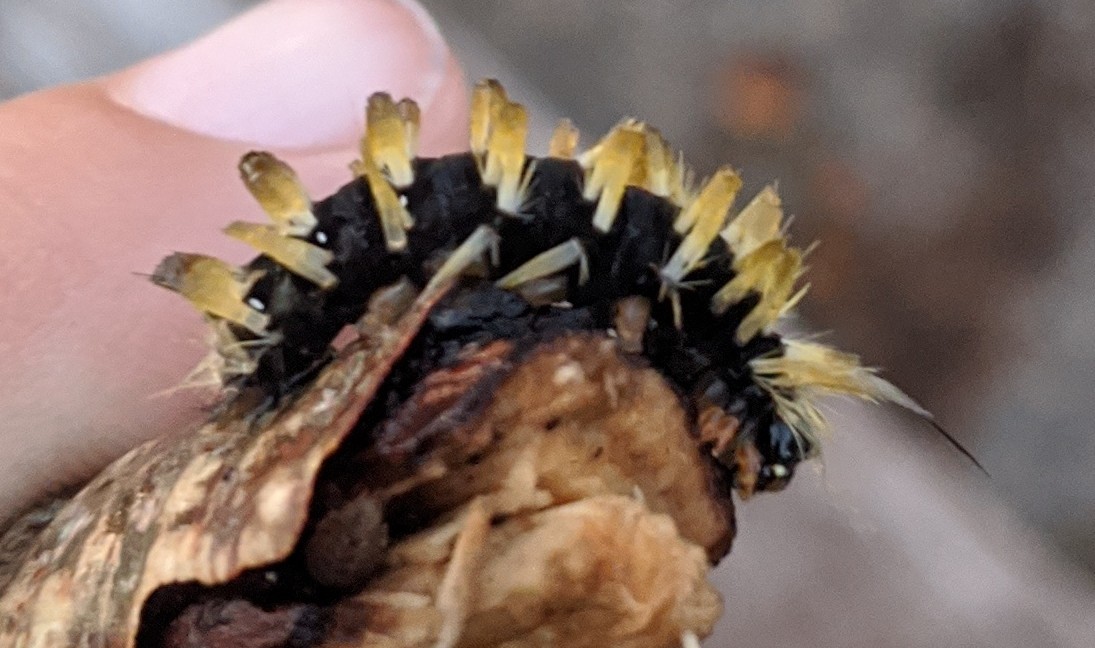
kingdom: Animalia
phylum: Arthropoda
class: Insecta
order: Lepidoptera
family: Erebidae
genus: Halysidota
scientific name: Halysidota tessellaris
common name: Banded tussock moth
